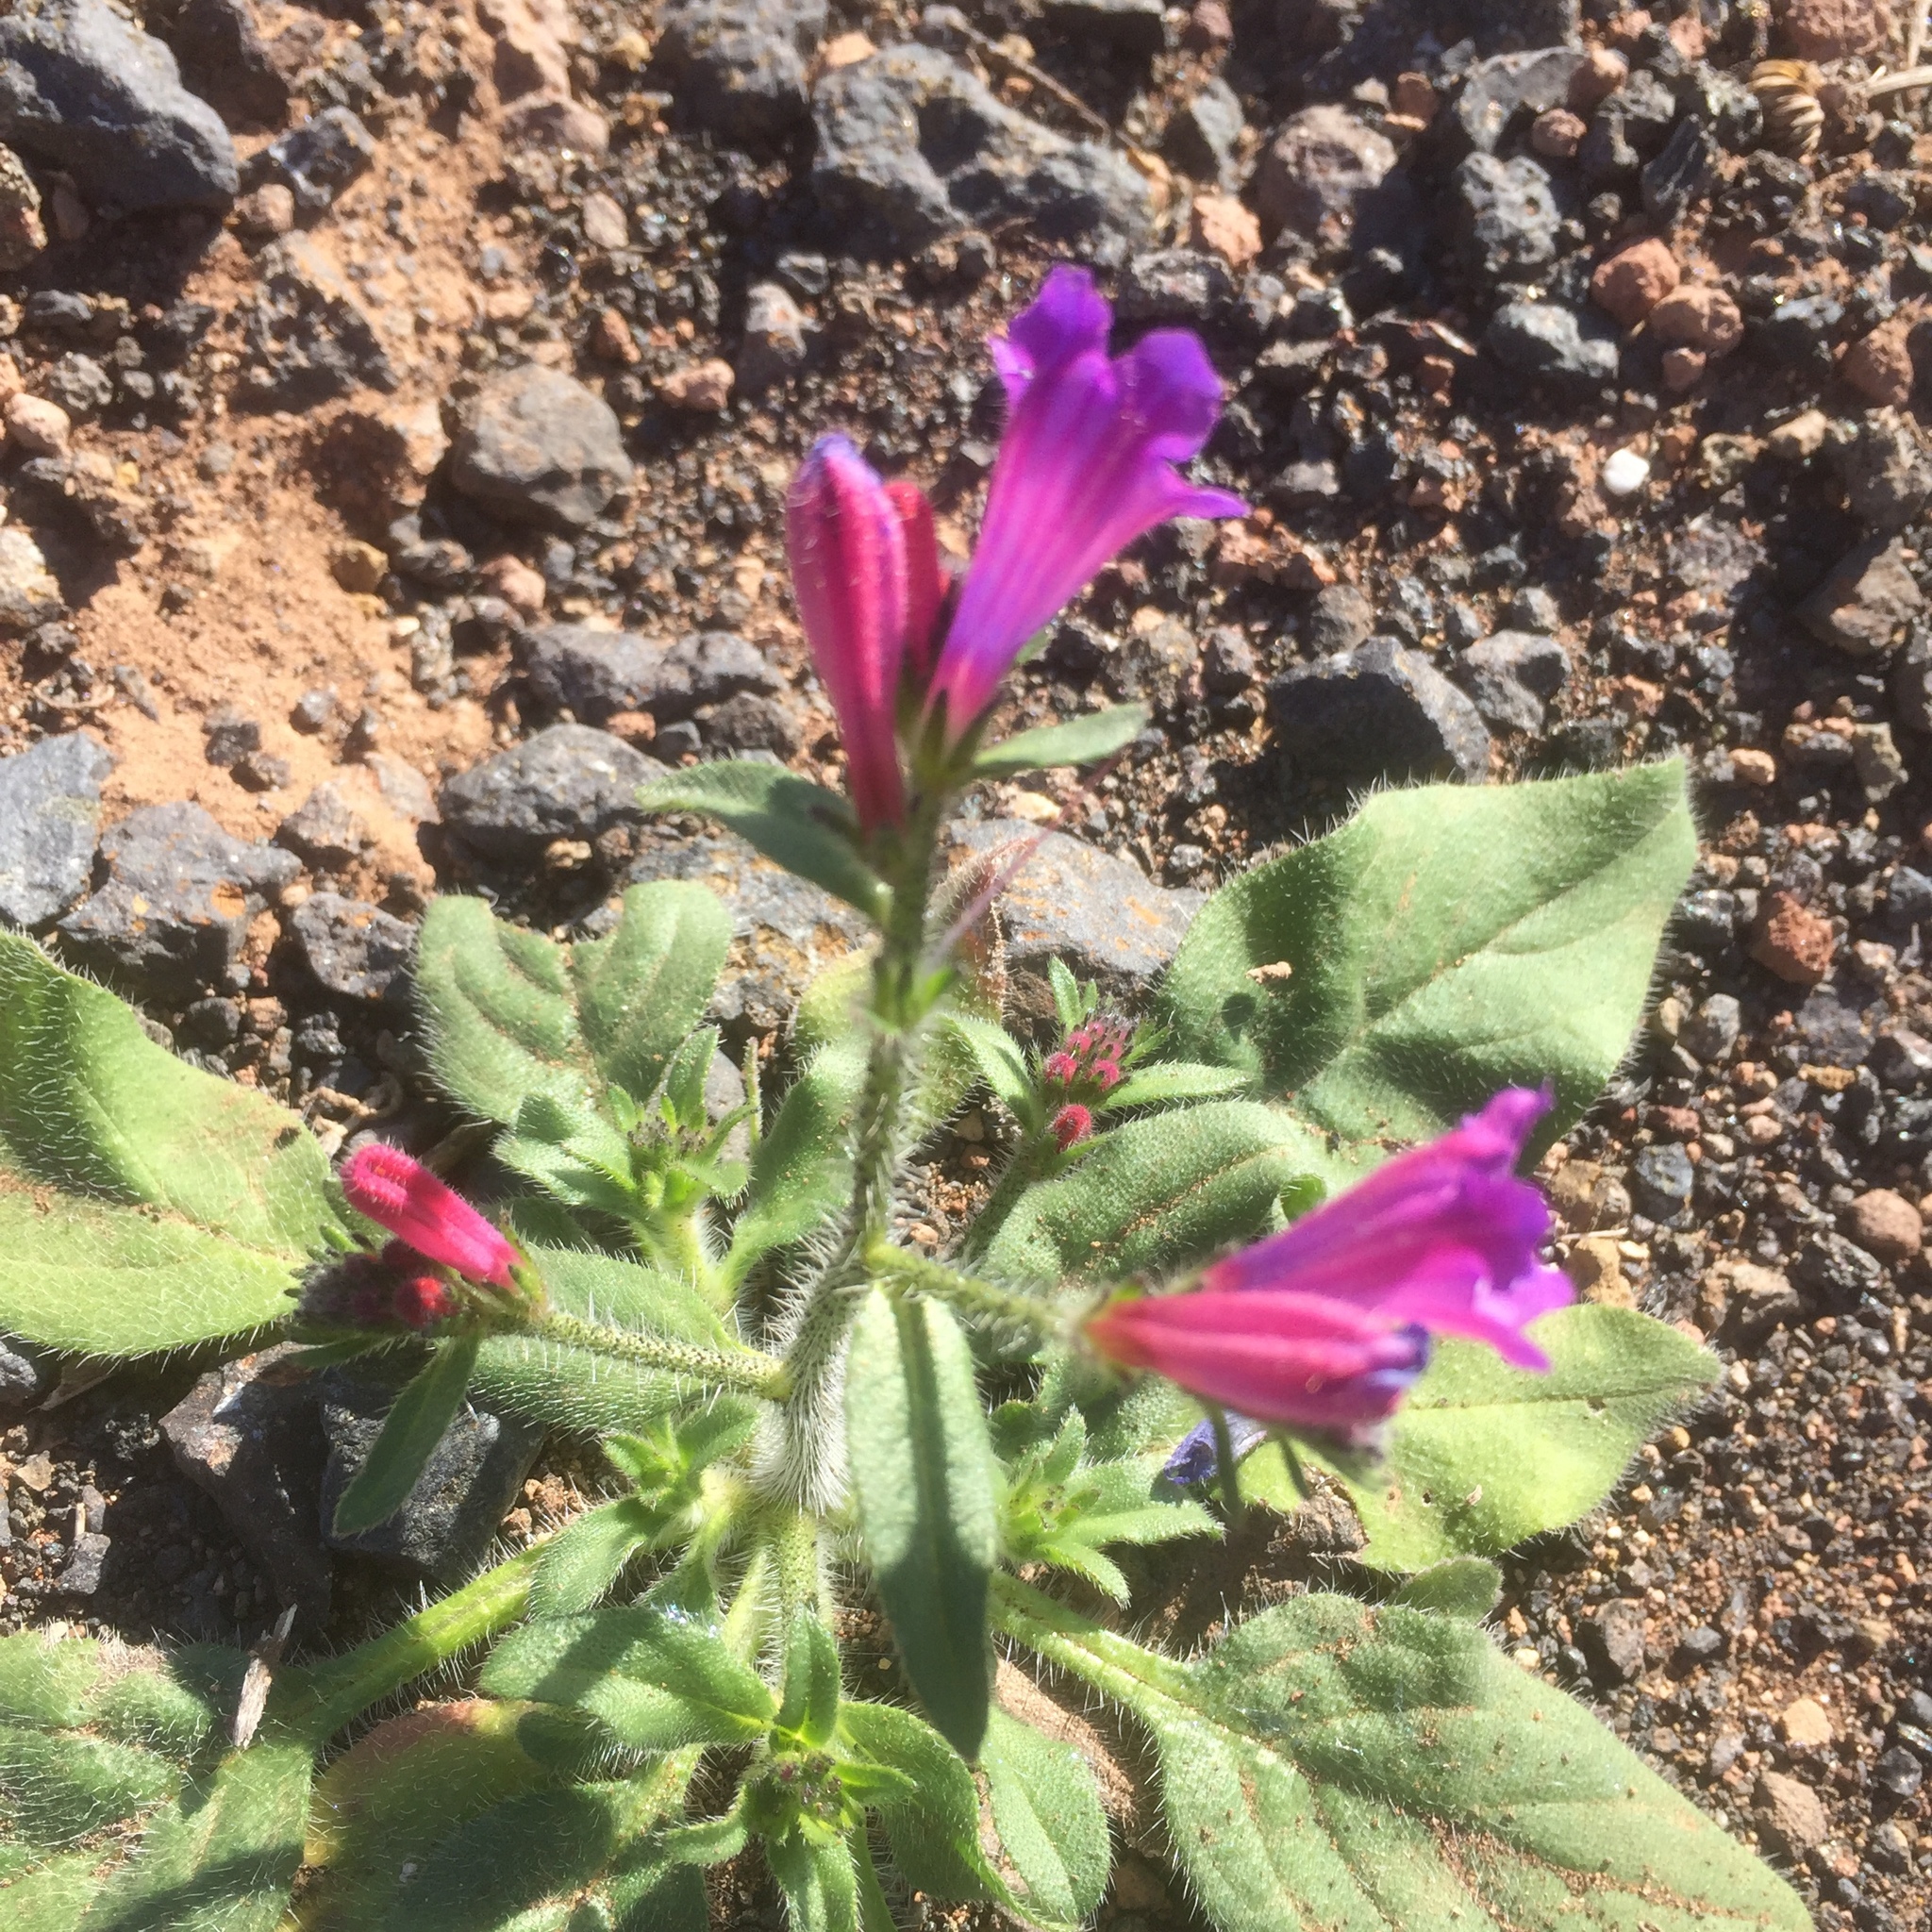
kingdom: Plantae
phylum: Tracheophyta
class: Magnoliopsida
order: Boraginales
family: Boraginaceae
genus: Echium
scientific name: Echium pitardii
